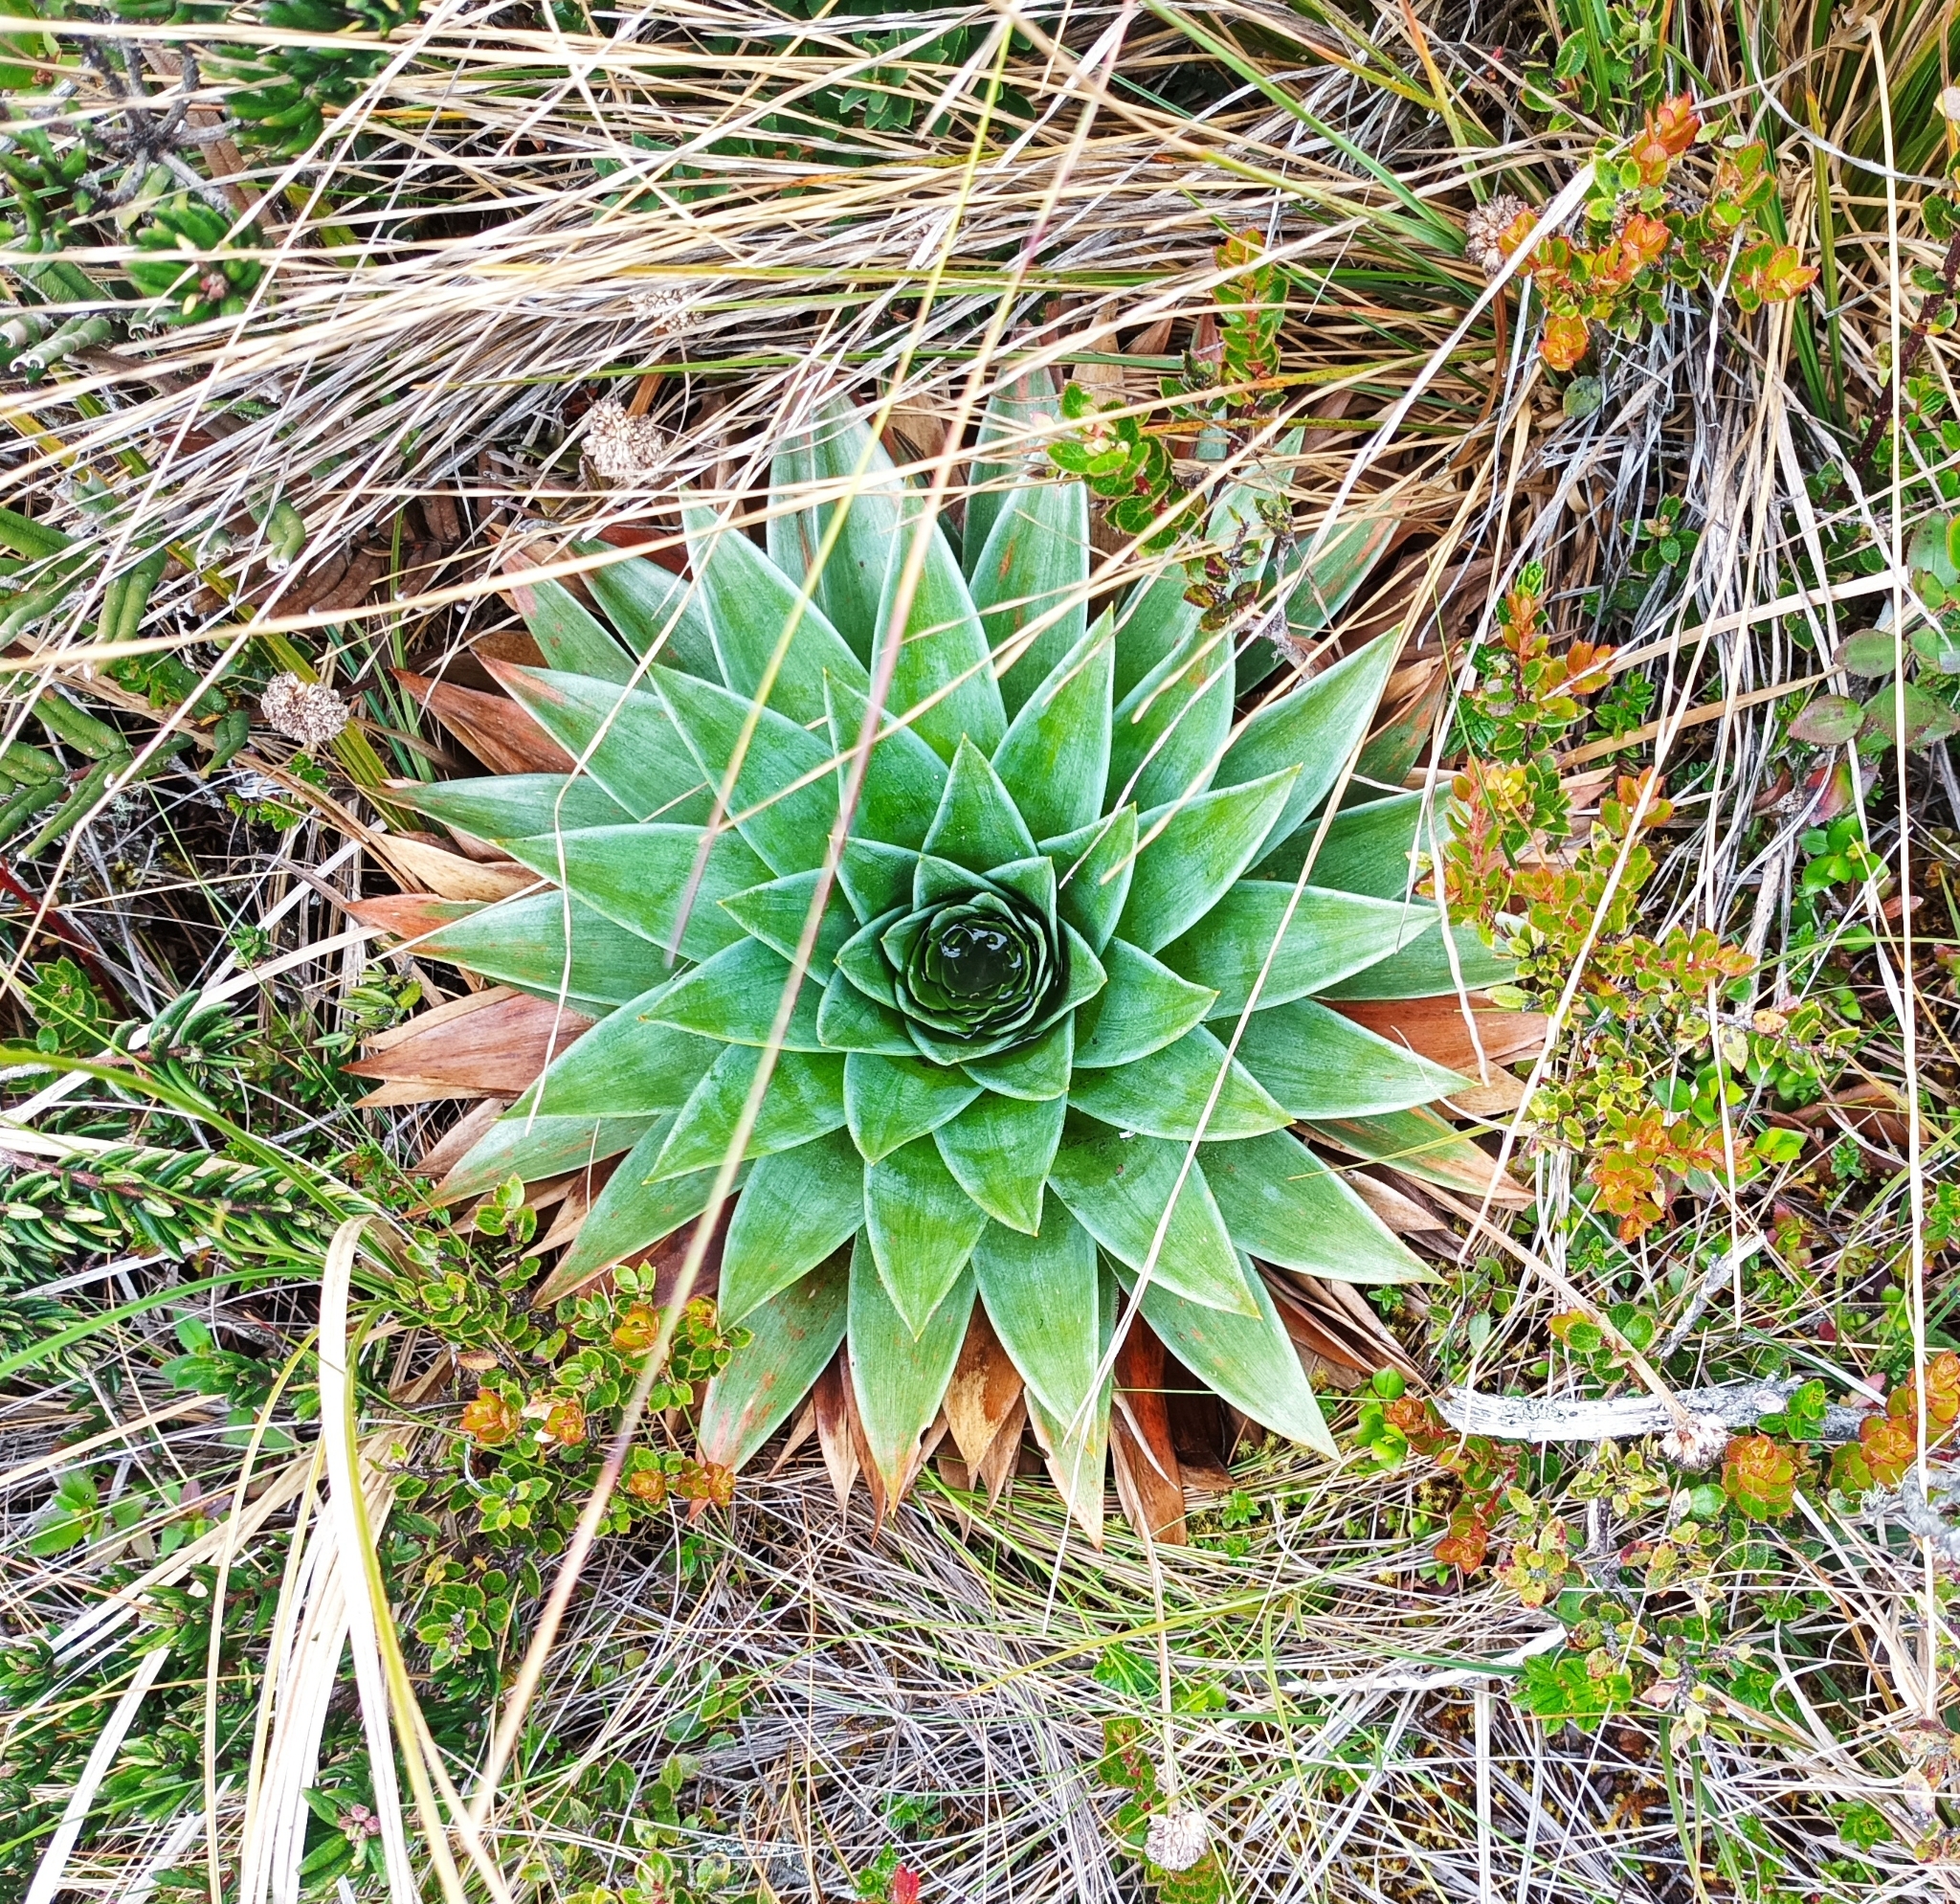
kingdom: Plantae
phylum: Tracheophyta
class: Liliopsida
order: Poales
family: Eriocaulaceae
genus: Paepalanthus
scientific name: Paepalanthus alpinus
